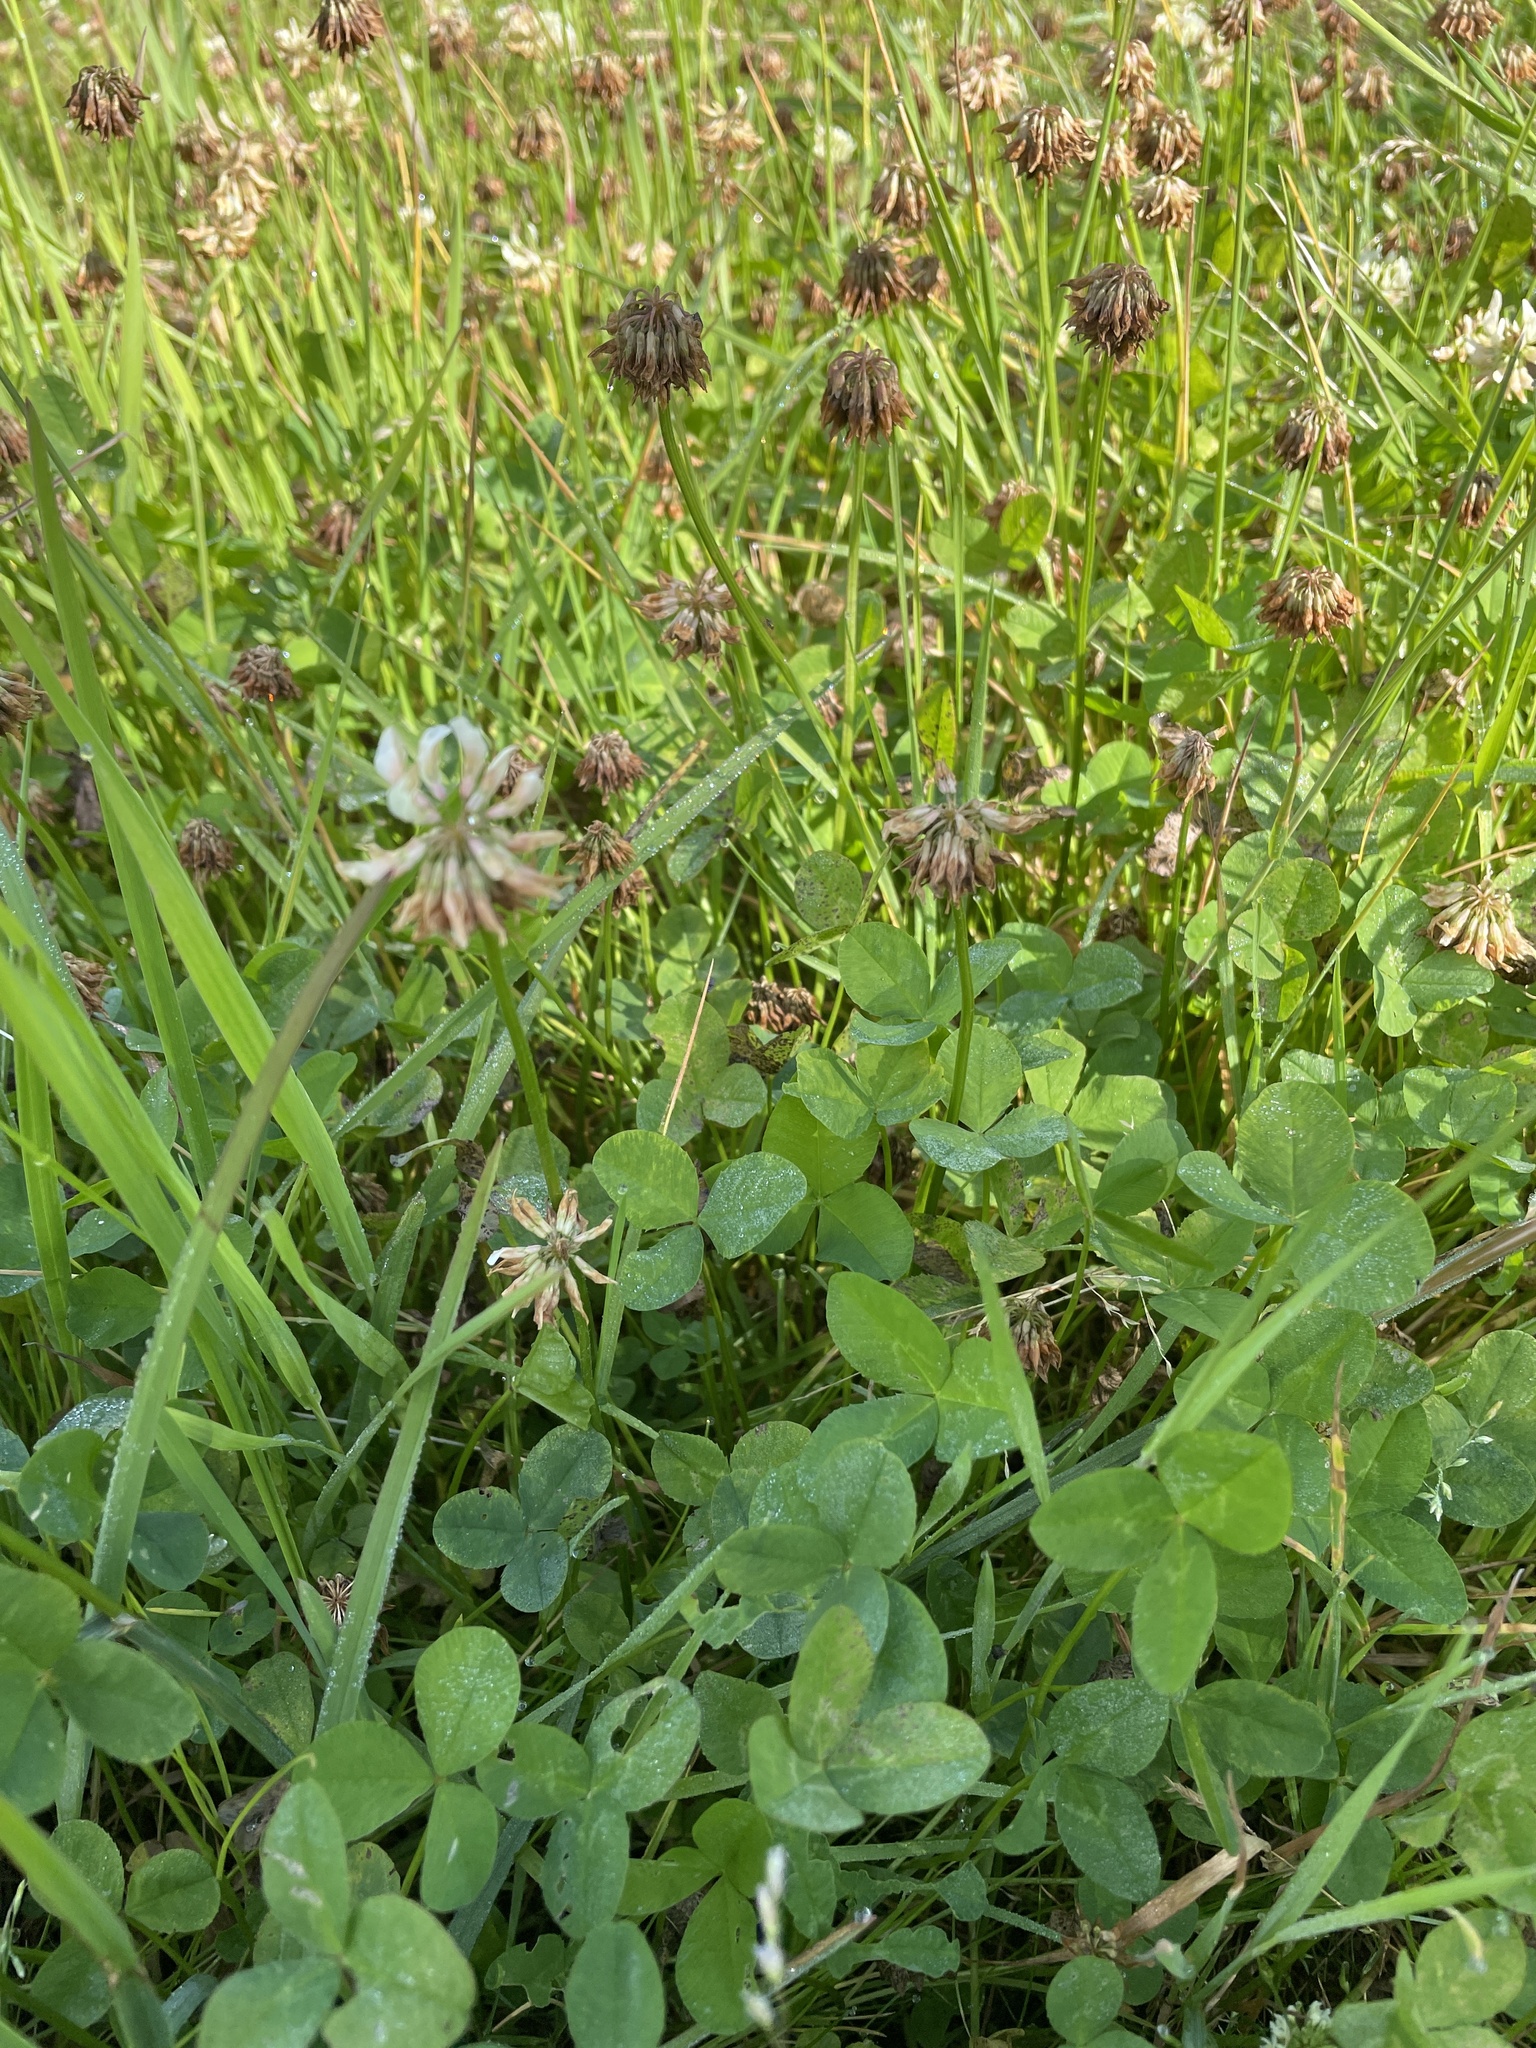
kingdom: Plantae
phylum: Tracheophyta
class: Magnoliopsida
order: Fabales
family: Fabaceae
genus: Trifolium
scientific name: Trifolium repens
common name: White clover
